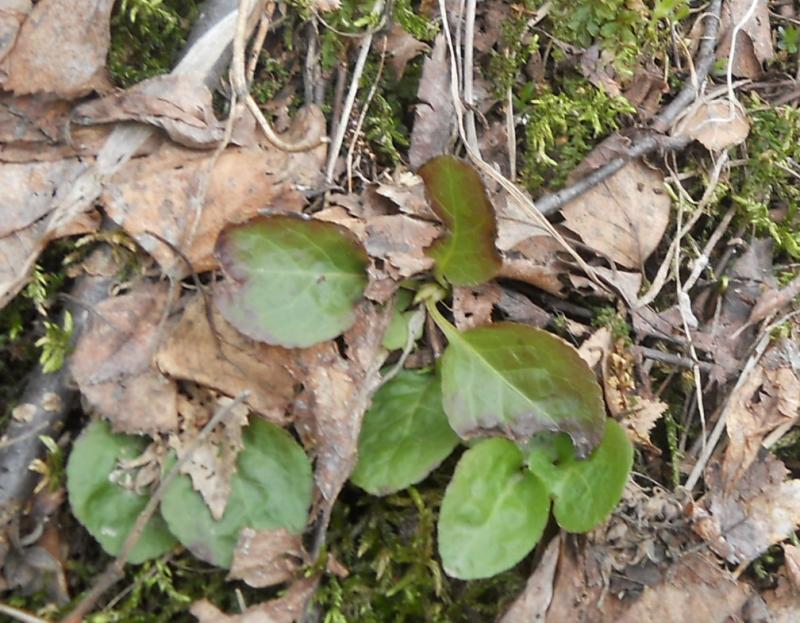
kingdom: Plantae
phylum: Tracheophyta
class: Magnoliopsida
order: Ericales
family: Ericaceae
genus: Orthilia
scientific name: Orthilia secunda
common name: One-sided orthilia
